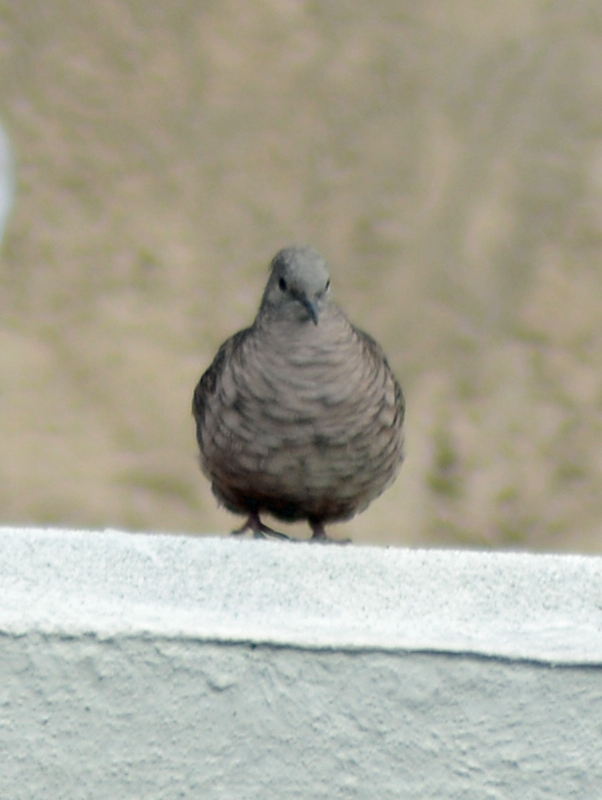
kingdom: Animalia
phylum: Chordata
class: Aves
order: Columbiformes
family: Columbidae
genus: Columbina
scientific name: Columbina inca
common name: Inca dove
